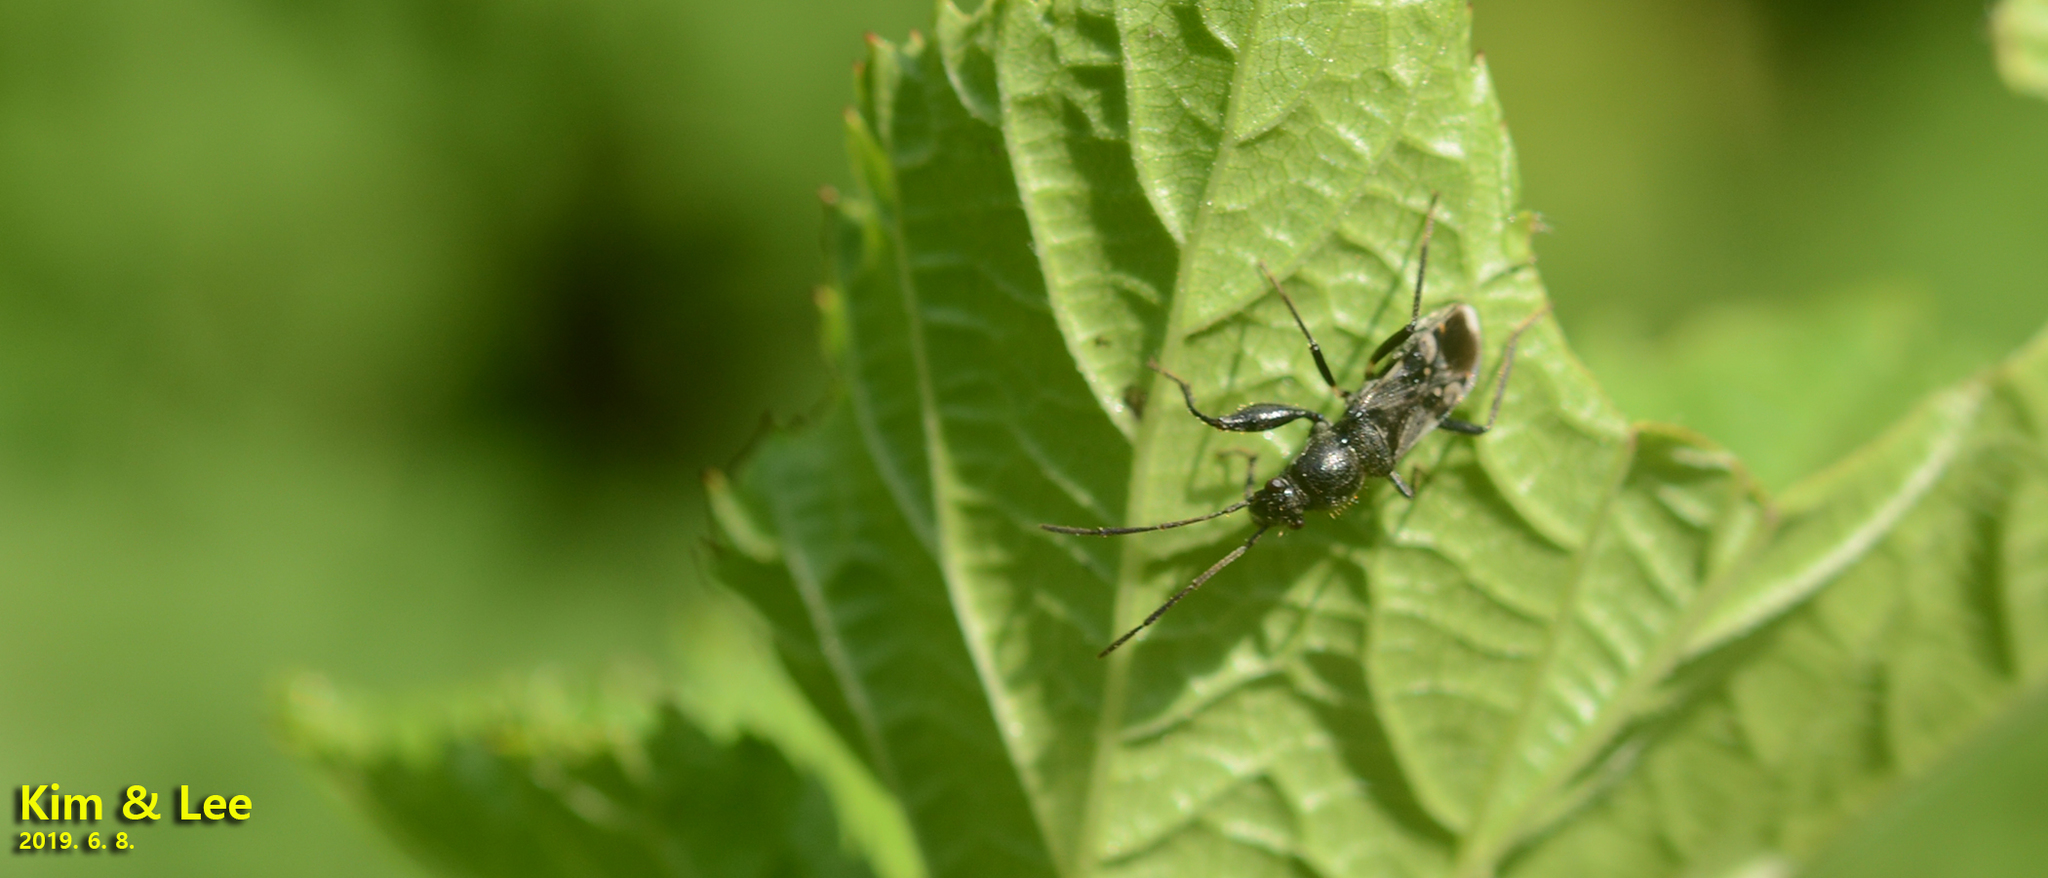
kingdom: Animalia
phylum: Arthropoda
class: Insecta
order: Hemiptera
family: Rhyparochromidae
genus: Scudderocoris
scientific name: Scudderocoris albomarginatus
